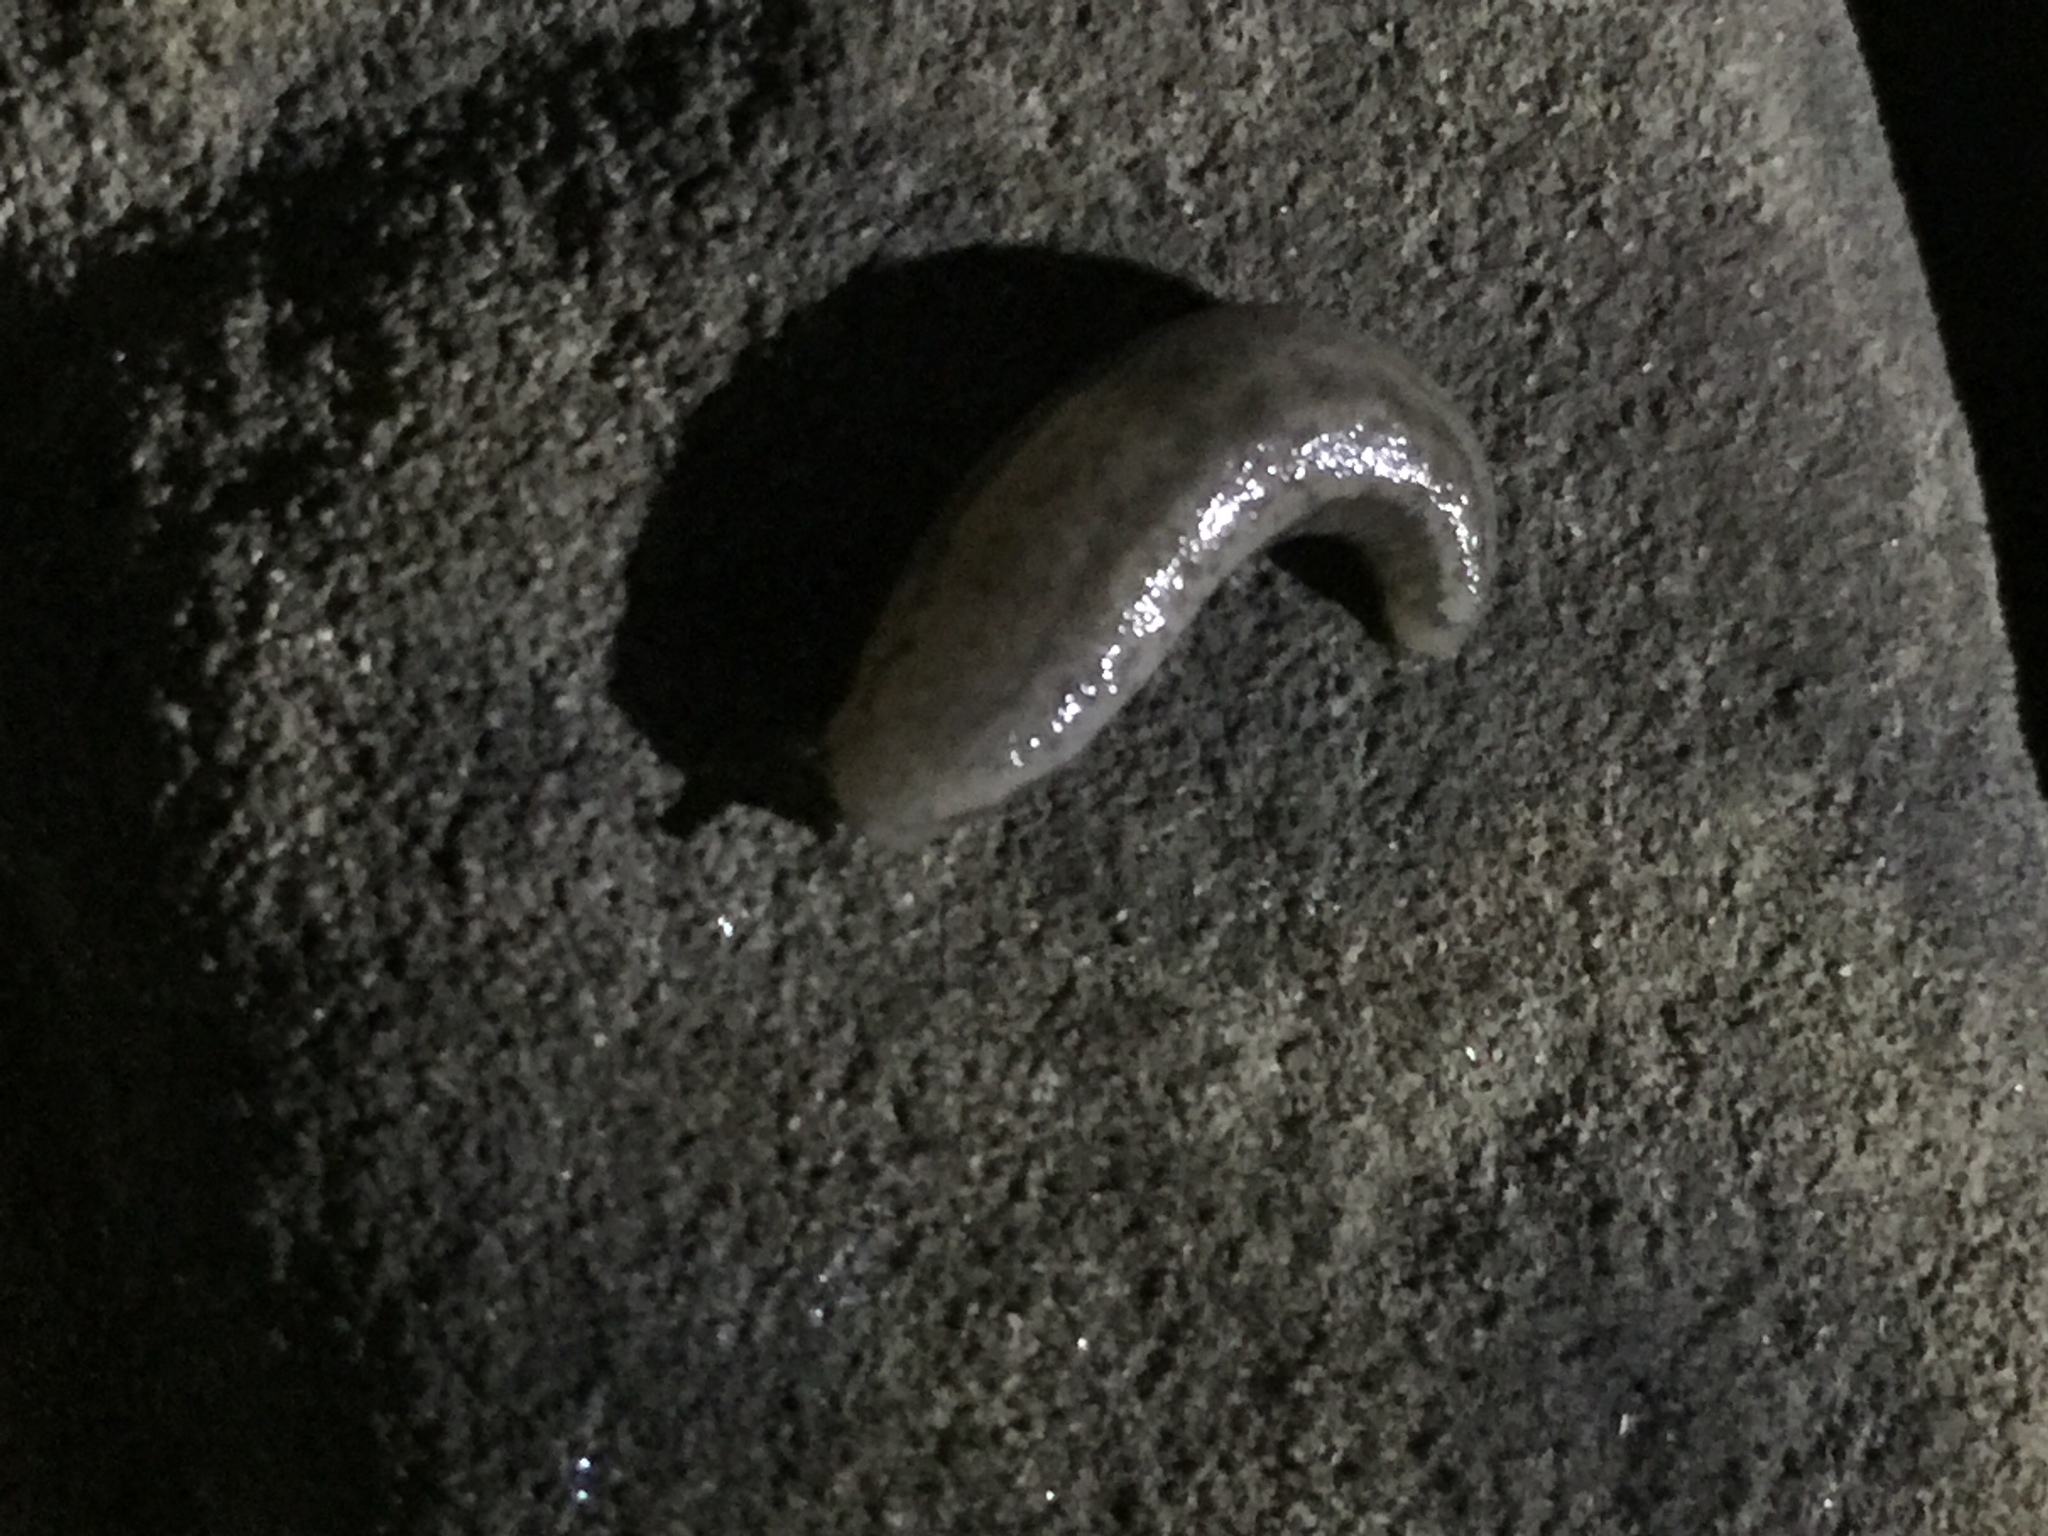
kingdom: Animalia
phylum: Mollusca
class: Gastropoda
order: Stylommatophora
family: Philomycidae
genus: Meghimatium
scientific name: Meghimatium bilineatum
